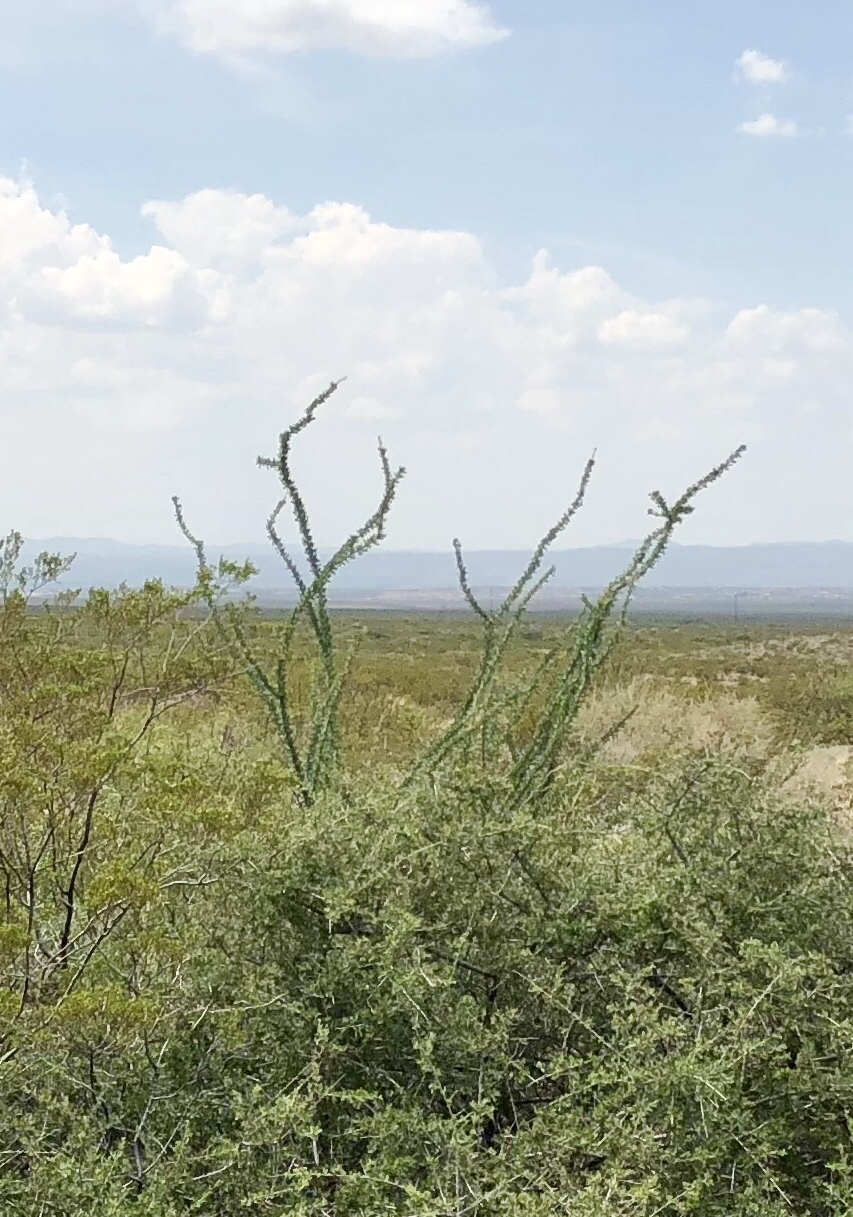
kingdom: Plantae
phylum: Tracheophyta
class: Magnoliopsida
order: Ericales
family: Fouquieriaceae
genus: Fouquieria
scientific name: Fouquieria splendens
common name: Vine-cactus
